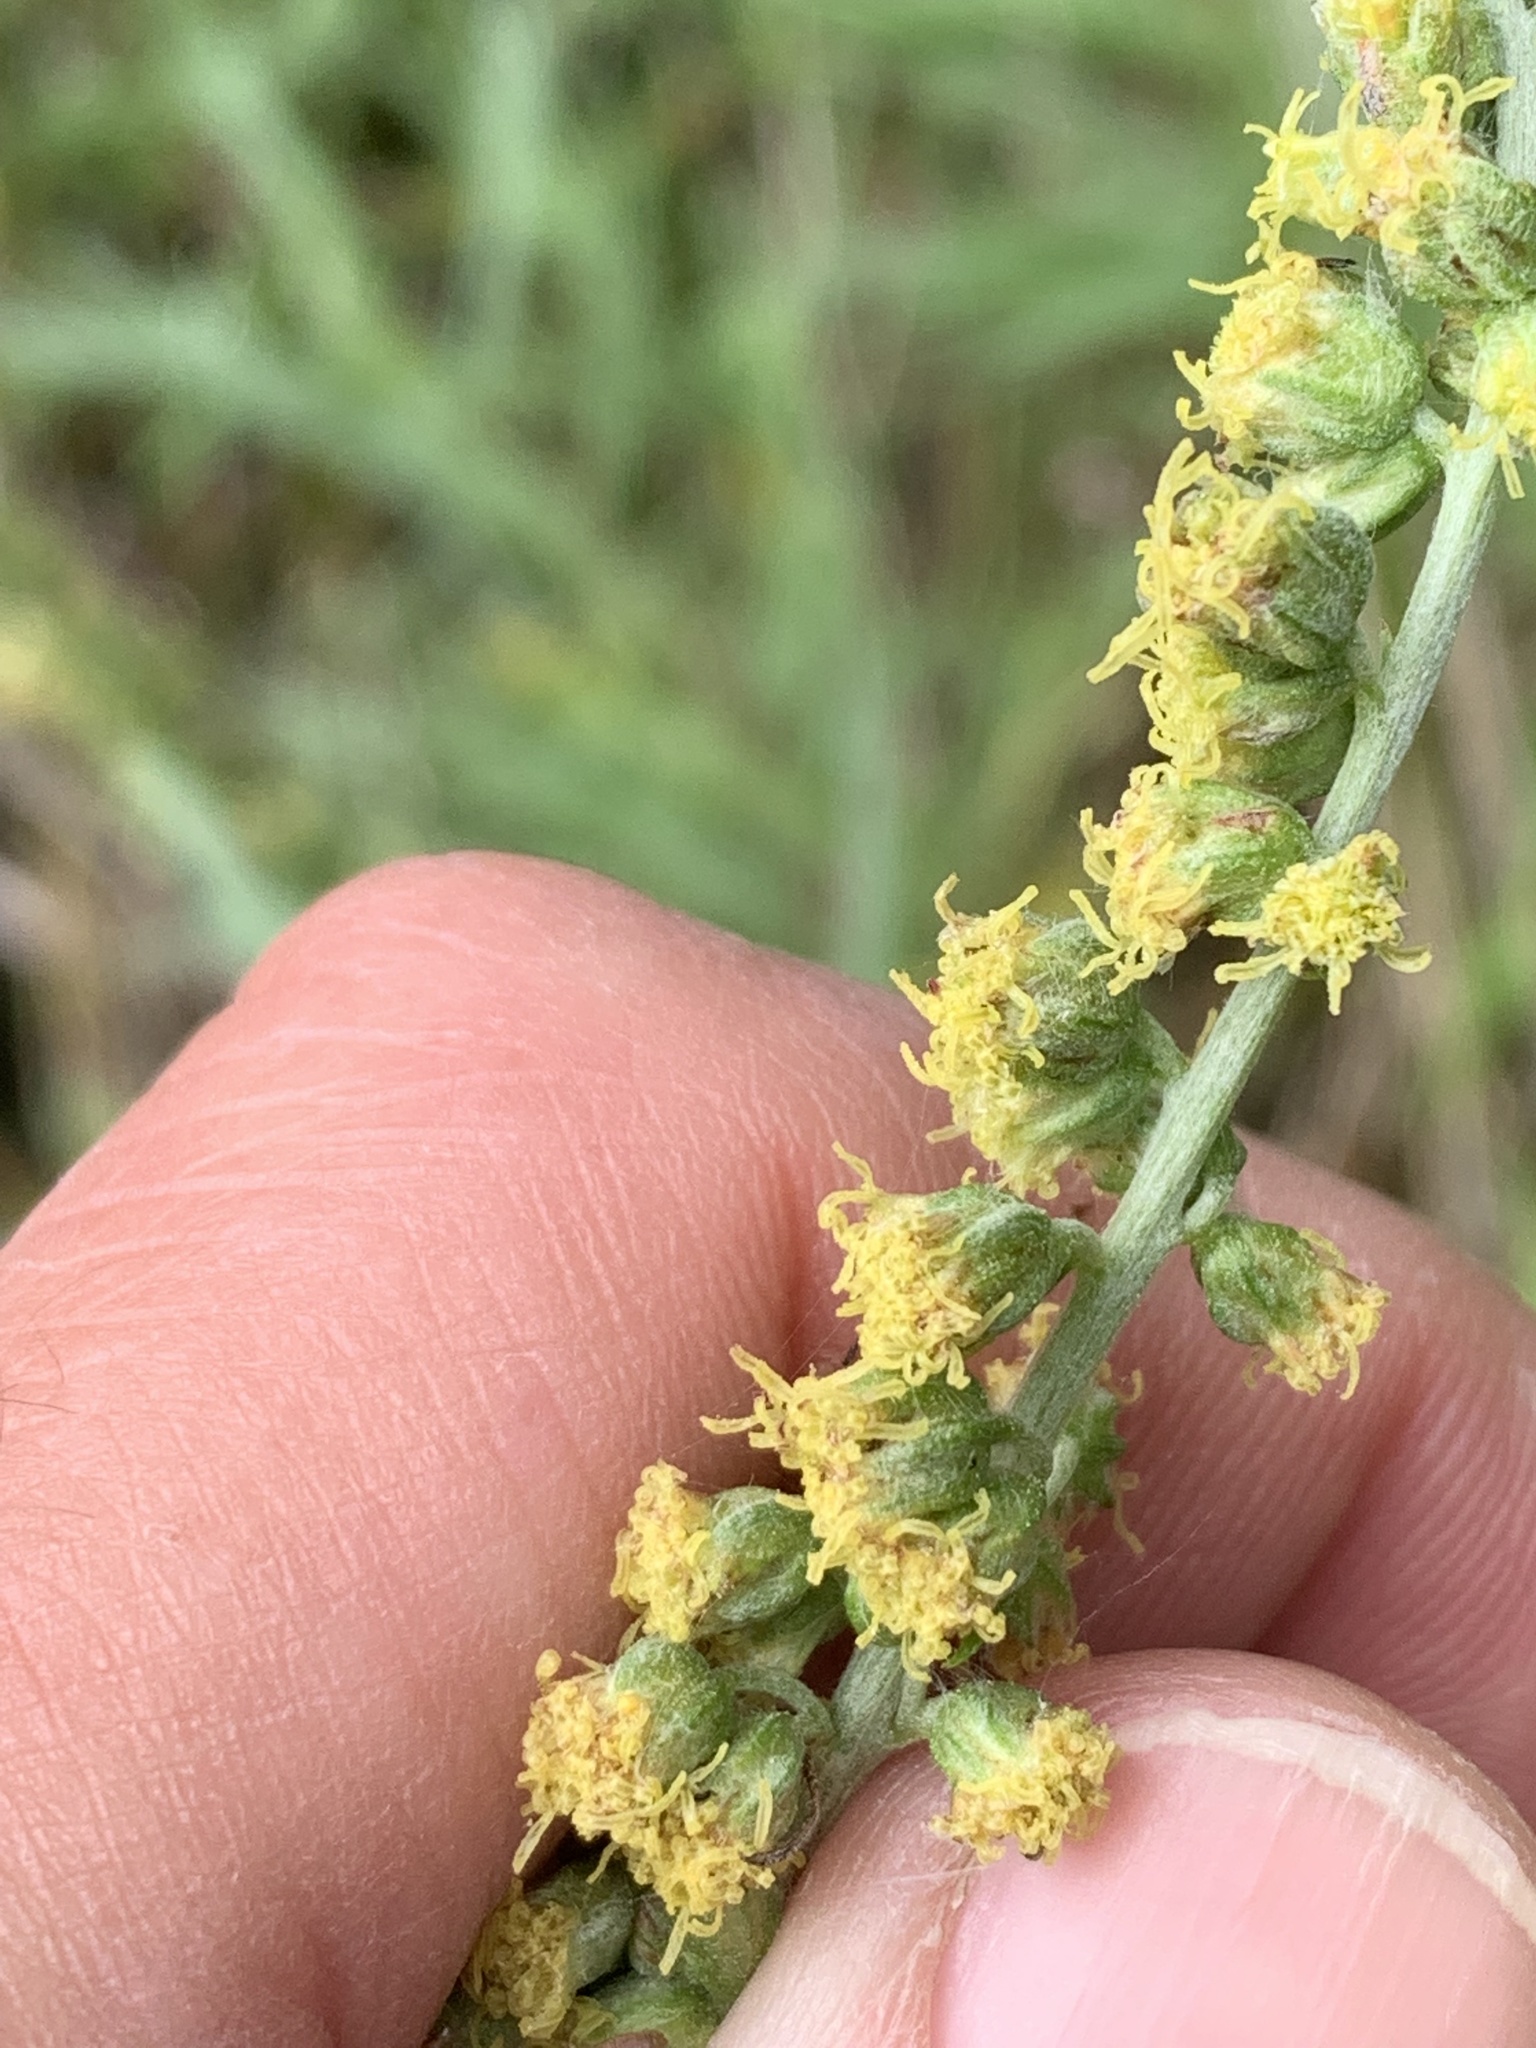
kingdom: Plantae
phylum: Tracheophyta
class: Magnoliopsida
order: Asterales
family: Asteraceae
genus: Artemisia
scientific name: Artemisia ludoviciana
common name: Western mugwort
